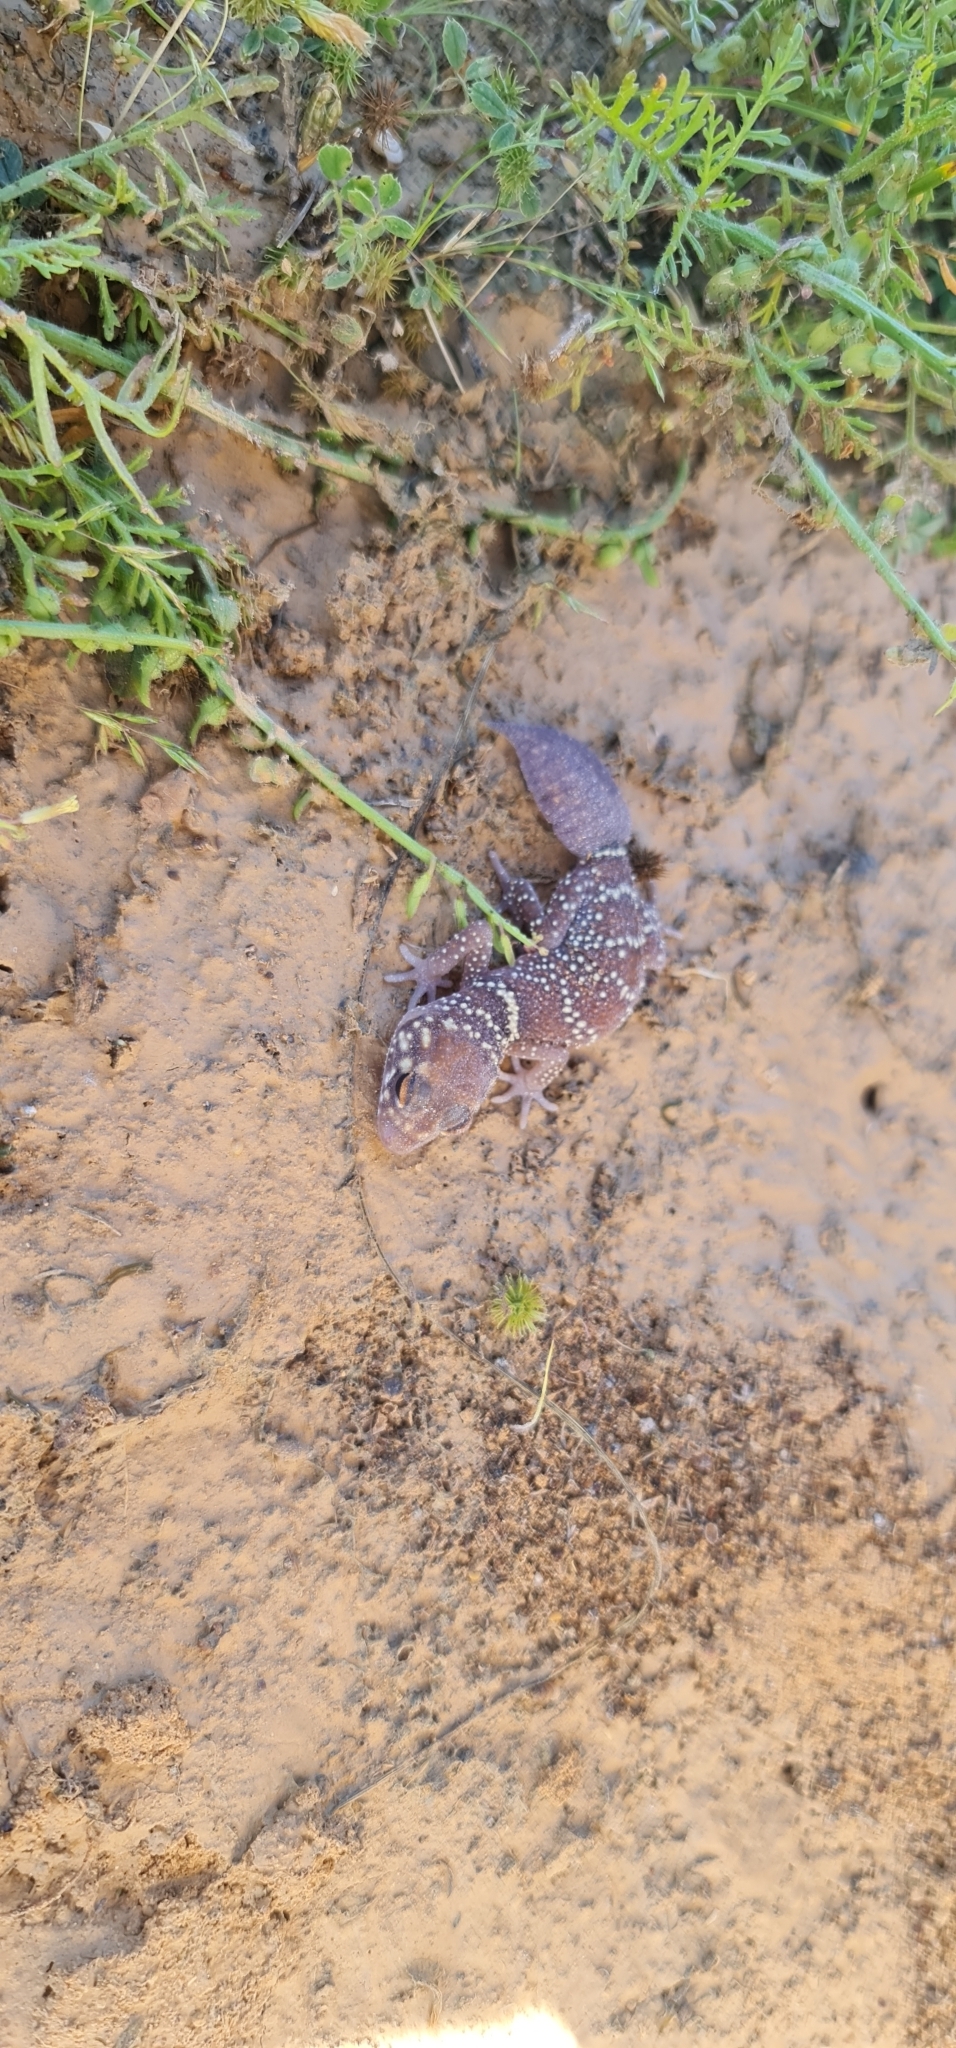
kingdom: Animalia
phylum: Chordata
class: Squamata
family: Carphodactylidae
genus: Underwoodisaurus
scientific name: Underwoodisaurus milii
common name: Barking gecko
